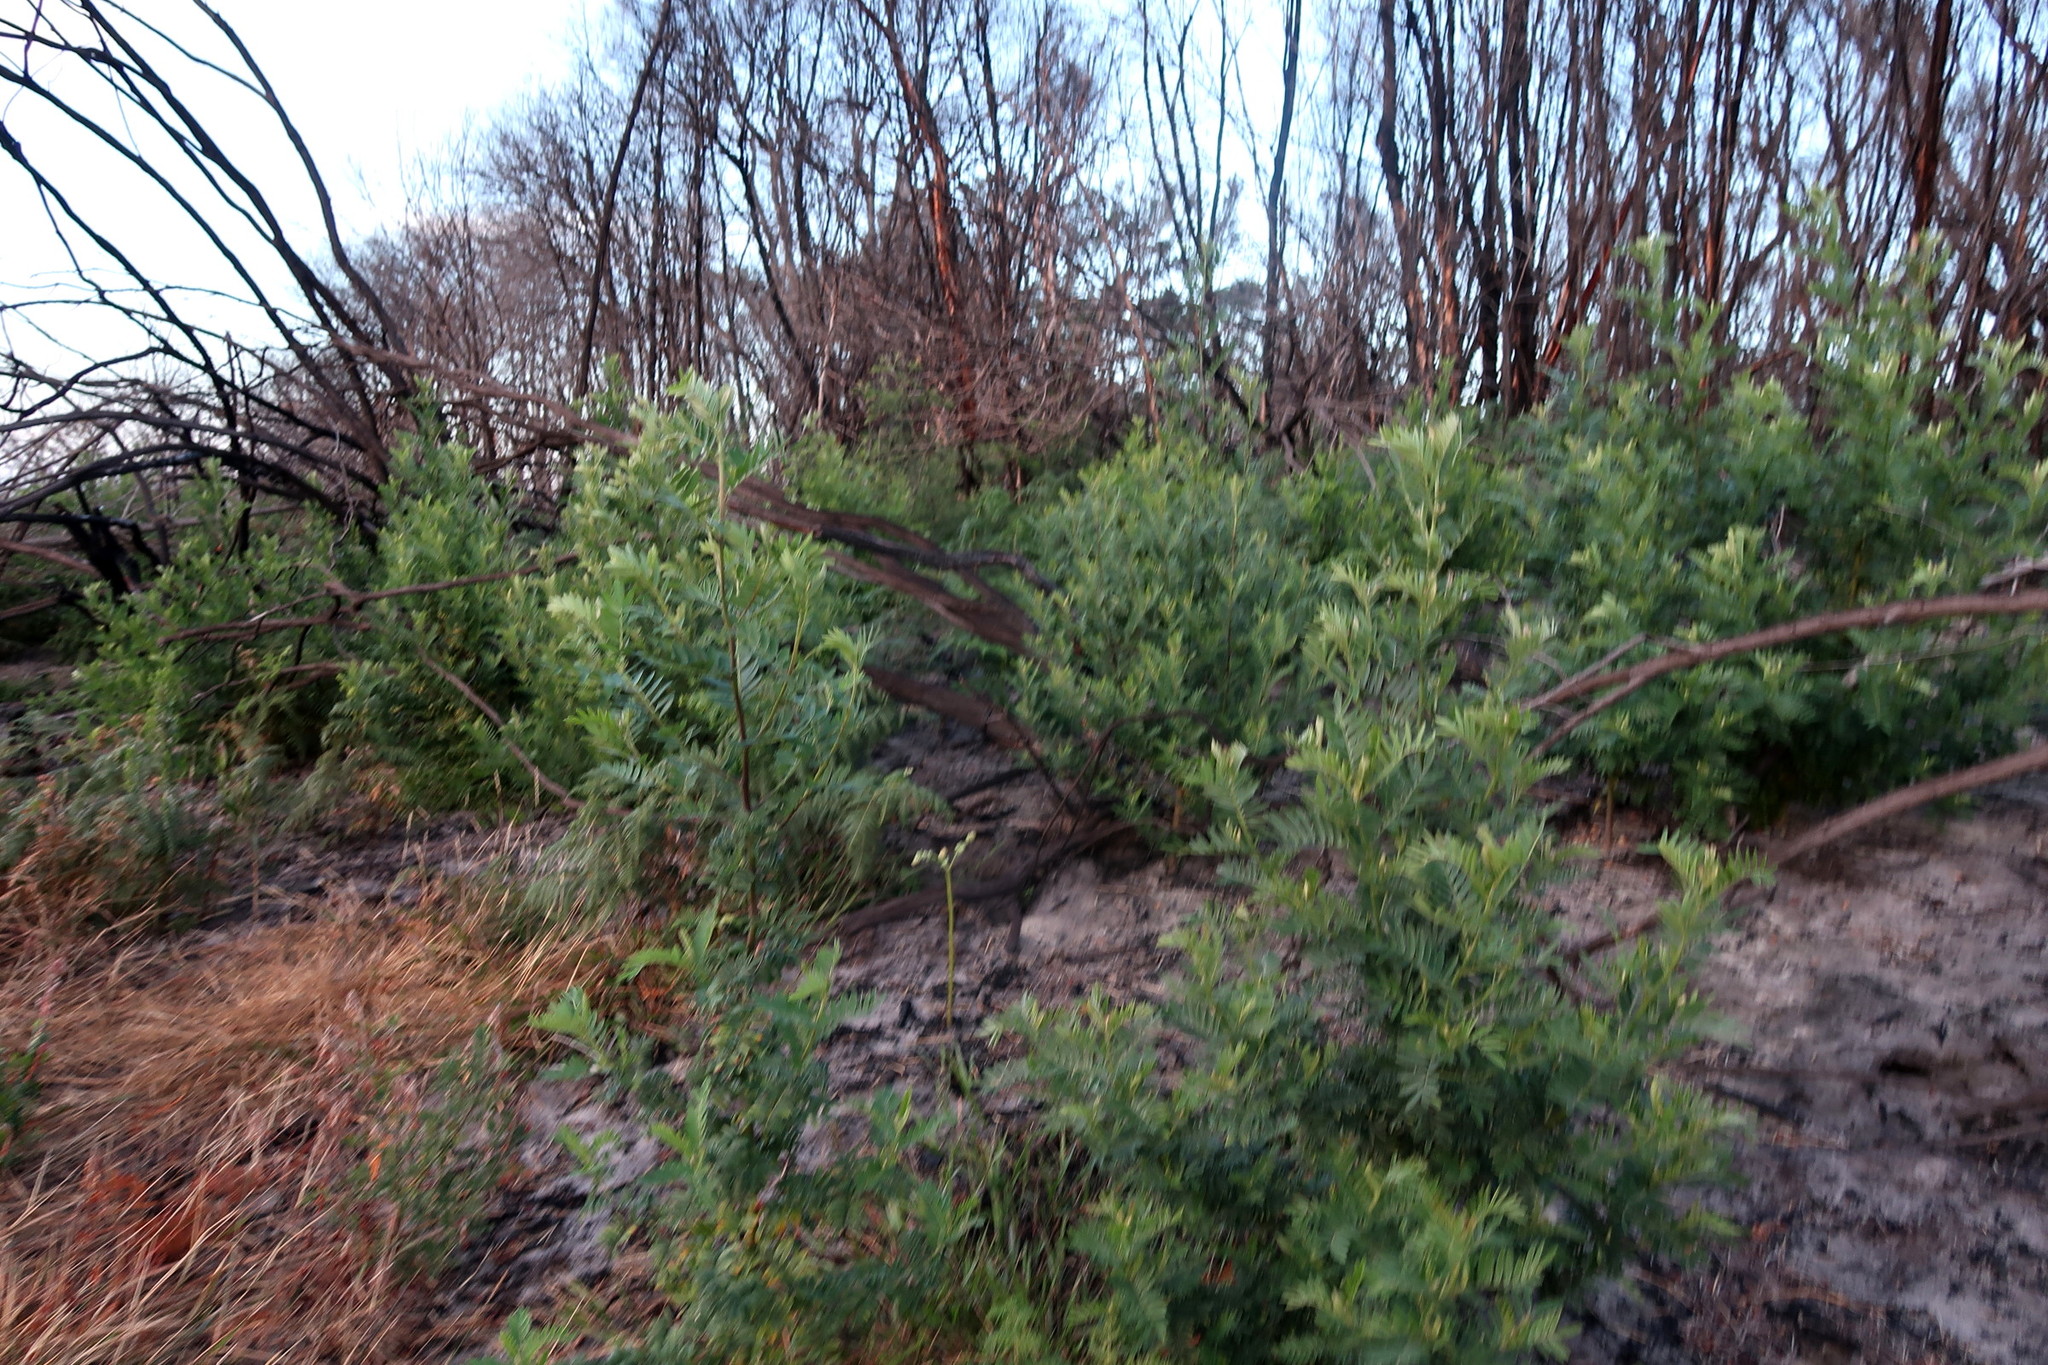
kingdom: Plantae
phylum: Tracheophyta
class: Magnoliopsida
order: Fabales
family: Fabaceae
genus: Virgilia
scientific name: Virgilia divaricata
